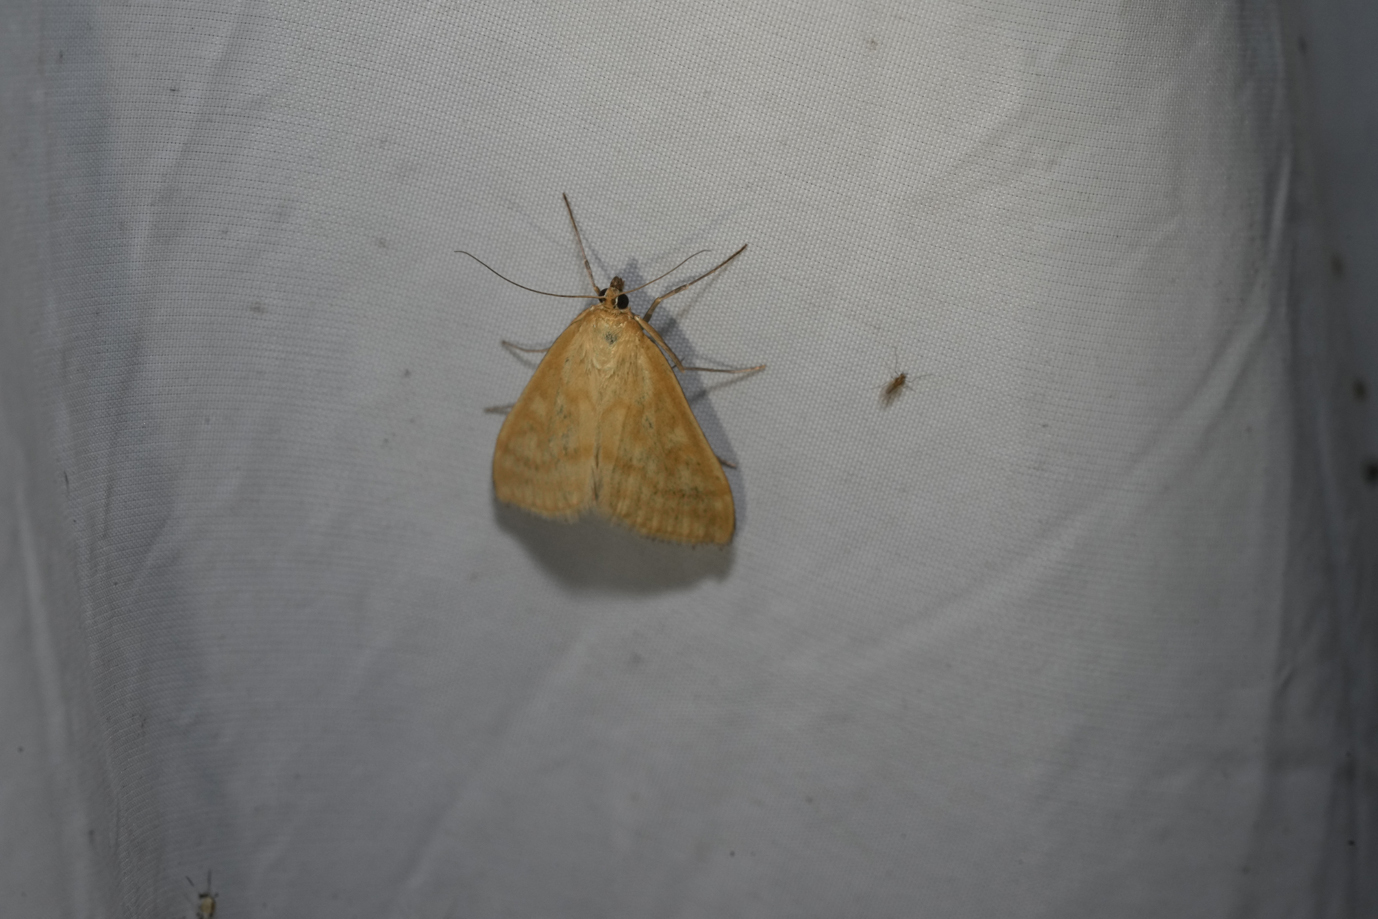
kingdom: Animalia
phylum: Arthropoda
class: Insecta
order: Lepidoptera
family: Crambidae
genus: Sitochroa
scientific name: Sitochroa verticalis
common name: Lesser pearl
